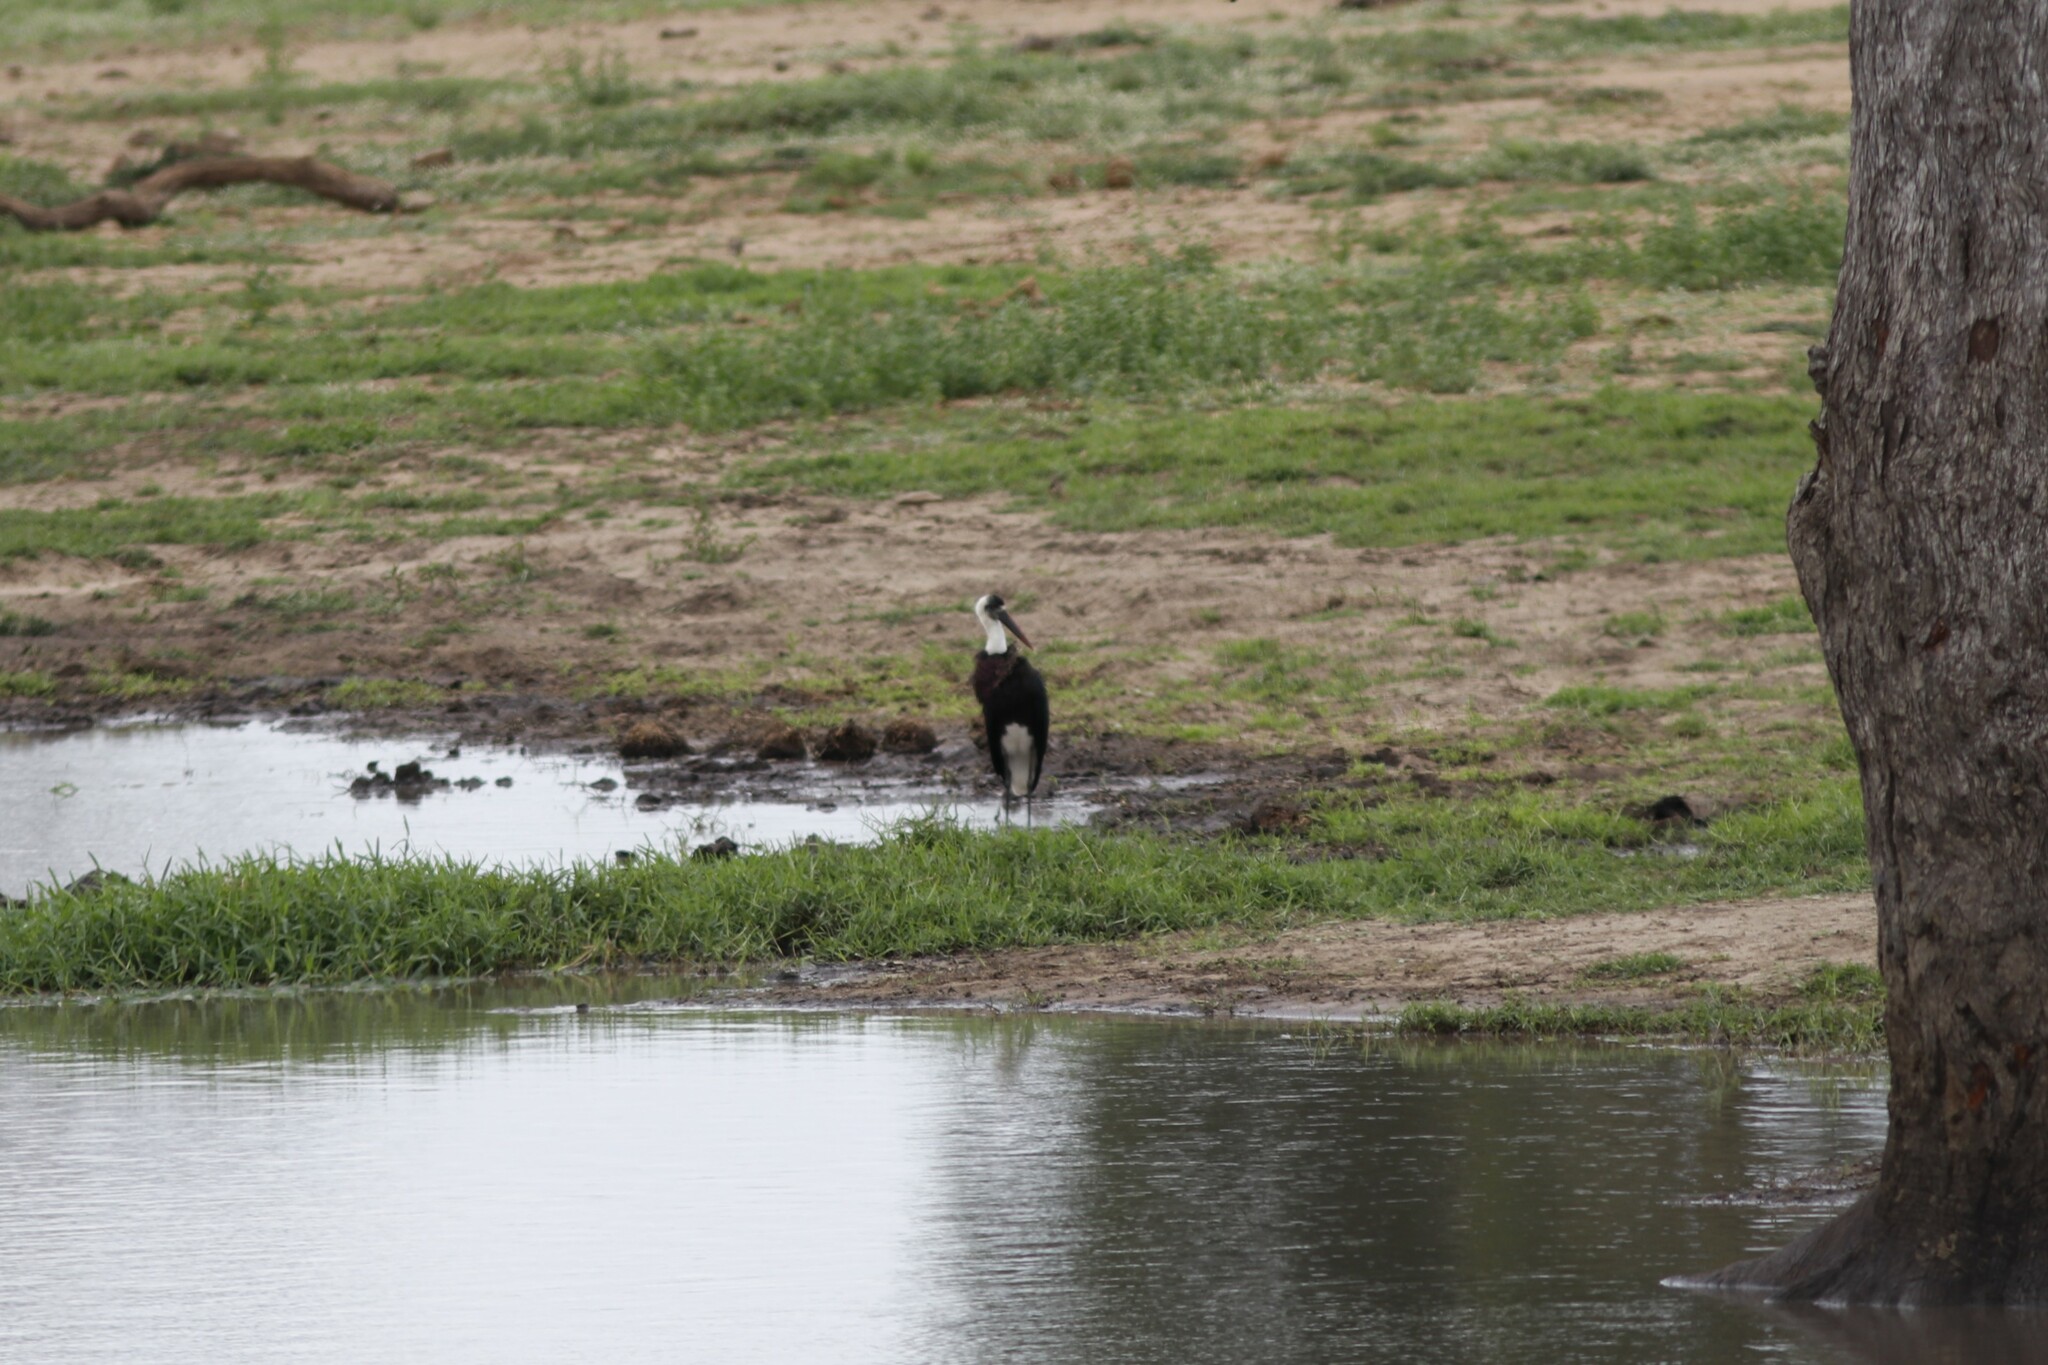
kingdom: Animalia
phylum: Chordata
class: Aves
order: Ciconiiformes
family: Ciconiidae
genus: Ciconia
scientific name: Ciconia microscelis
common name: African woollyneck
